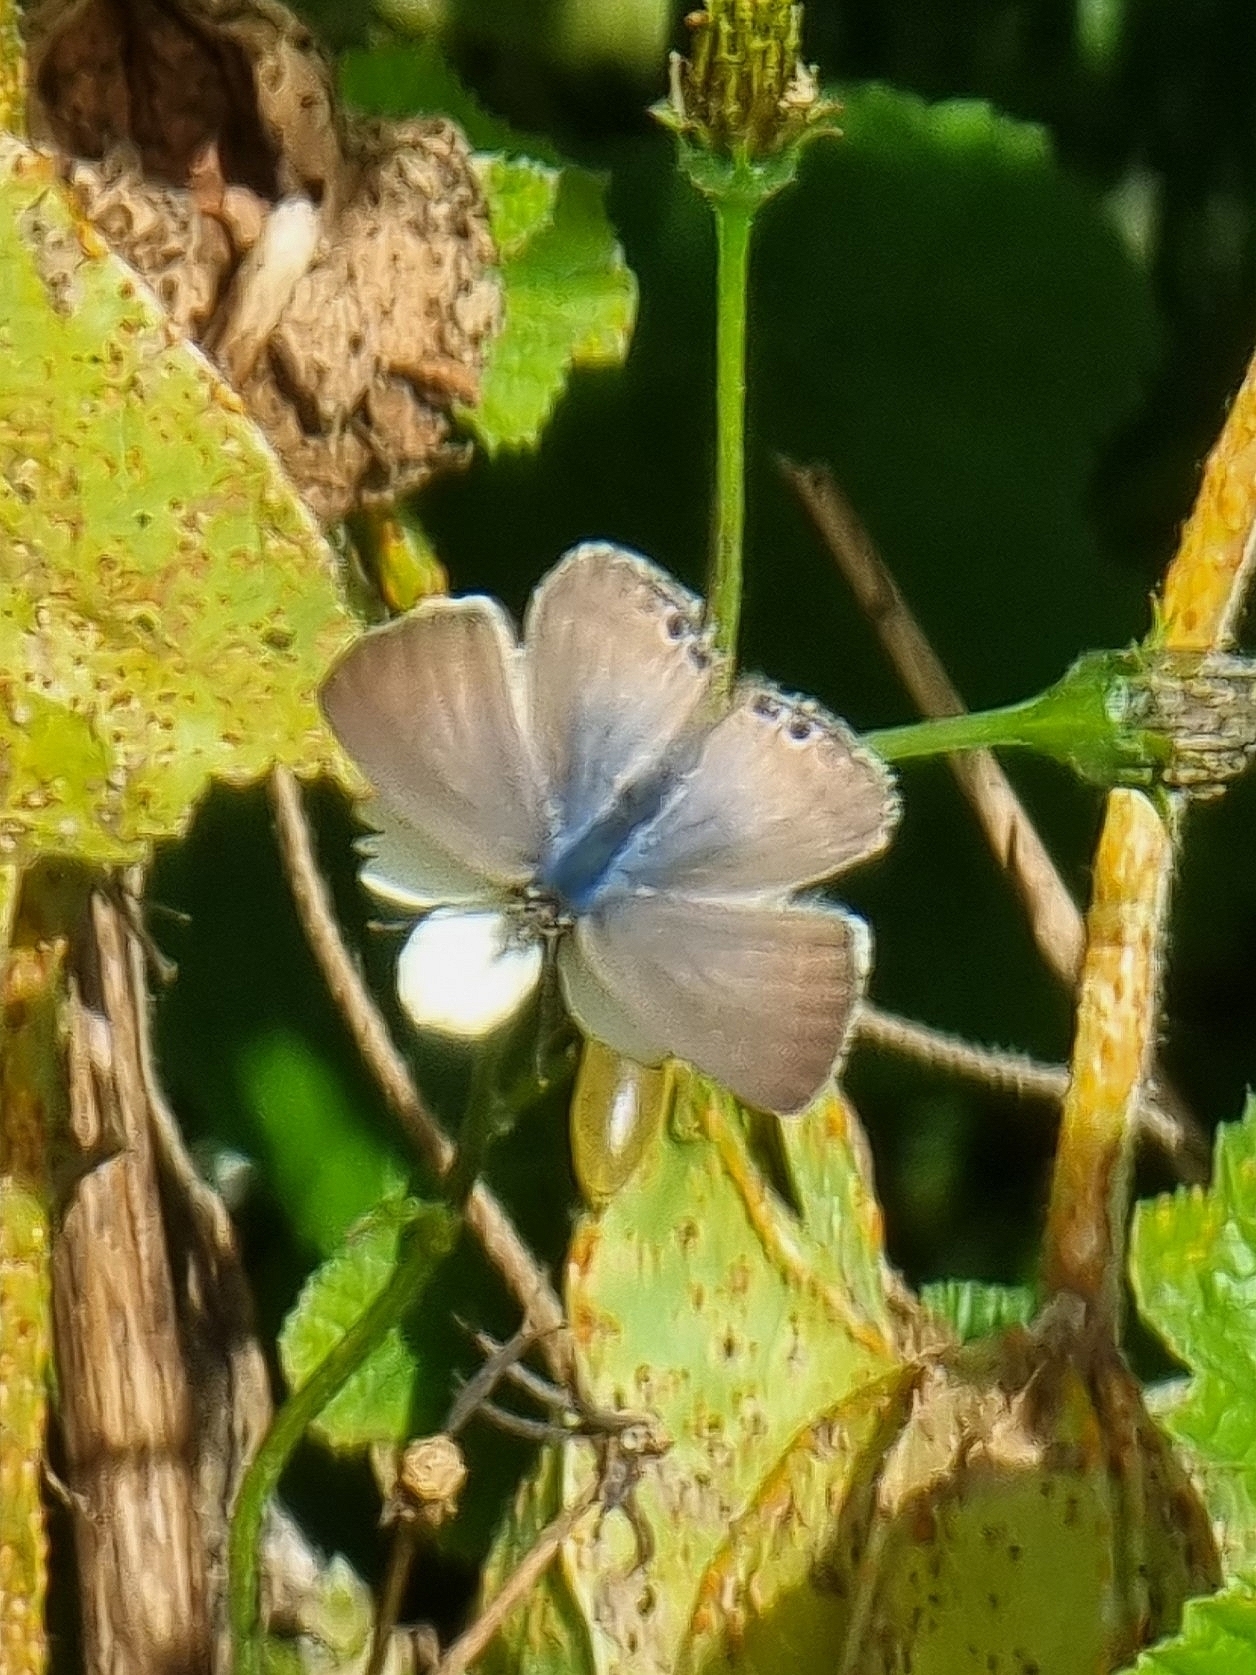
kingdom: Animalia
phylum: Arthropoda
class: Insecta
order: Lepidoptera
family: Lycaenidae
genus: Lampides
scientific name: Lampides boeticus
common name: Long-tailed blue
